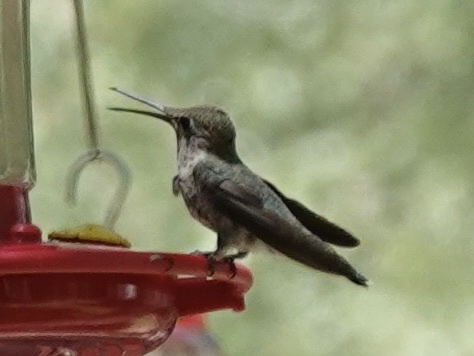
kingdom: Animalia
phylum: Chordata
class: Aves
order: Apodiformes
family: Trochilidae
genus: Calypte
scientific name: Calypte anna
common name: Anna's hummingbird
